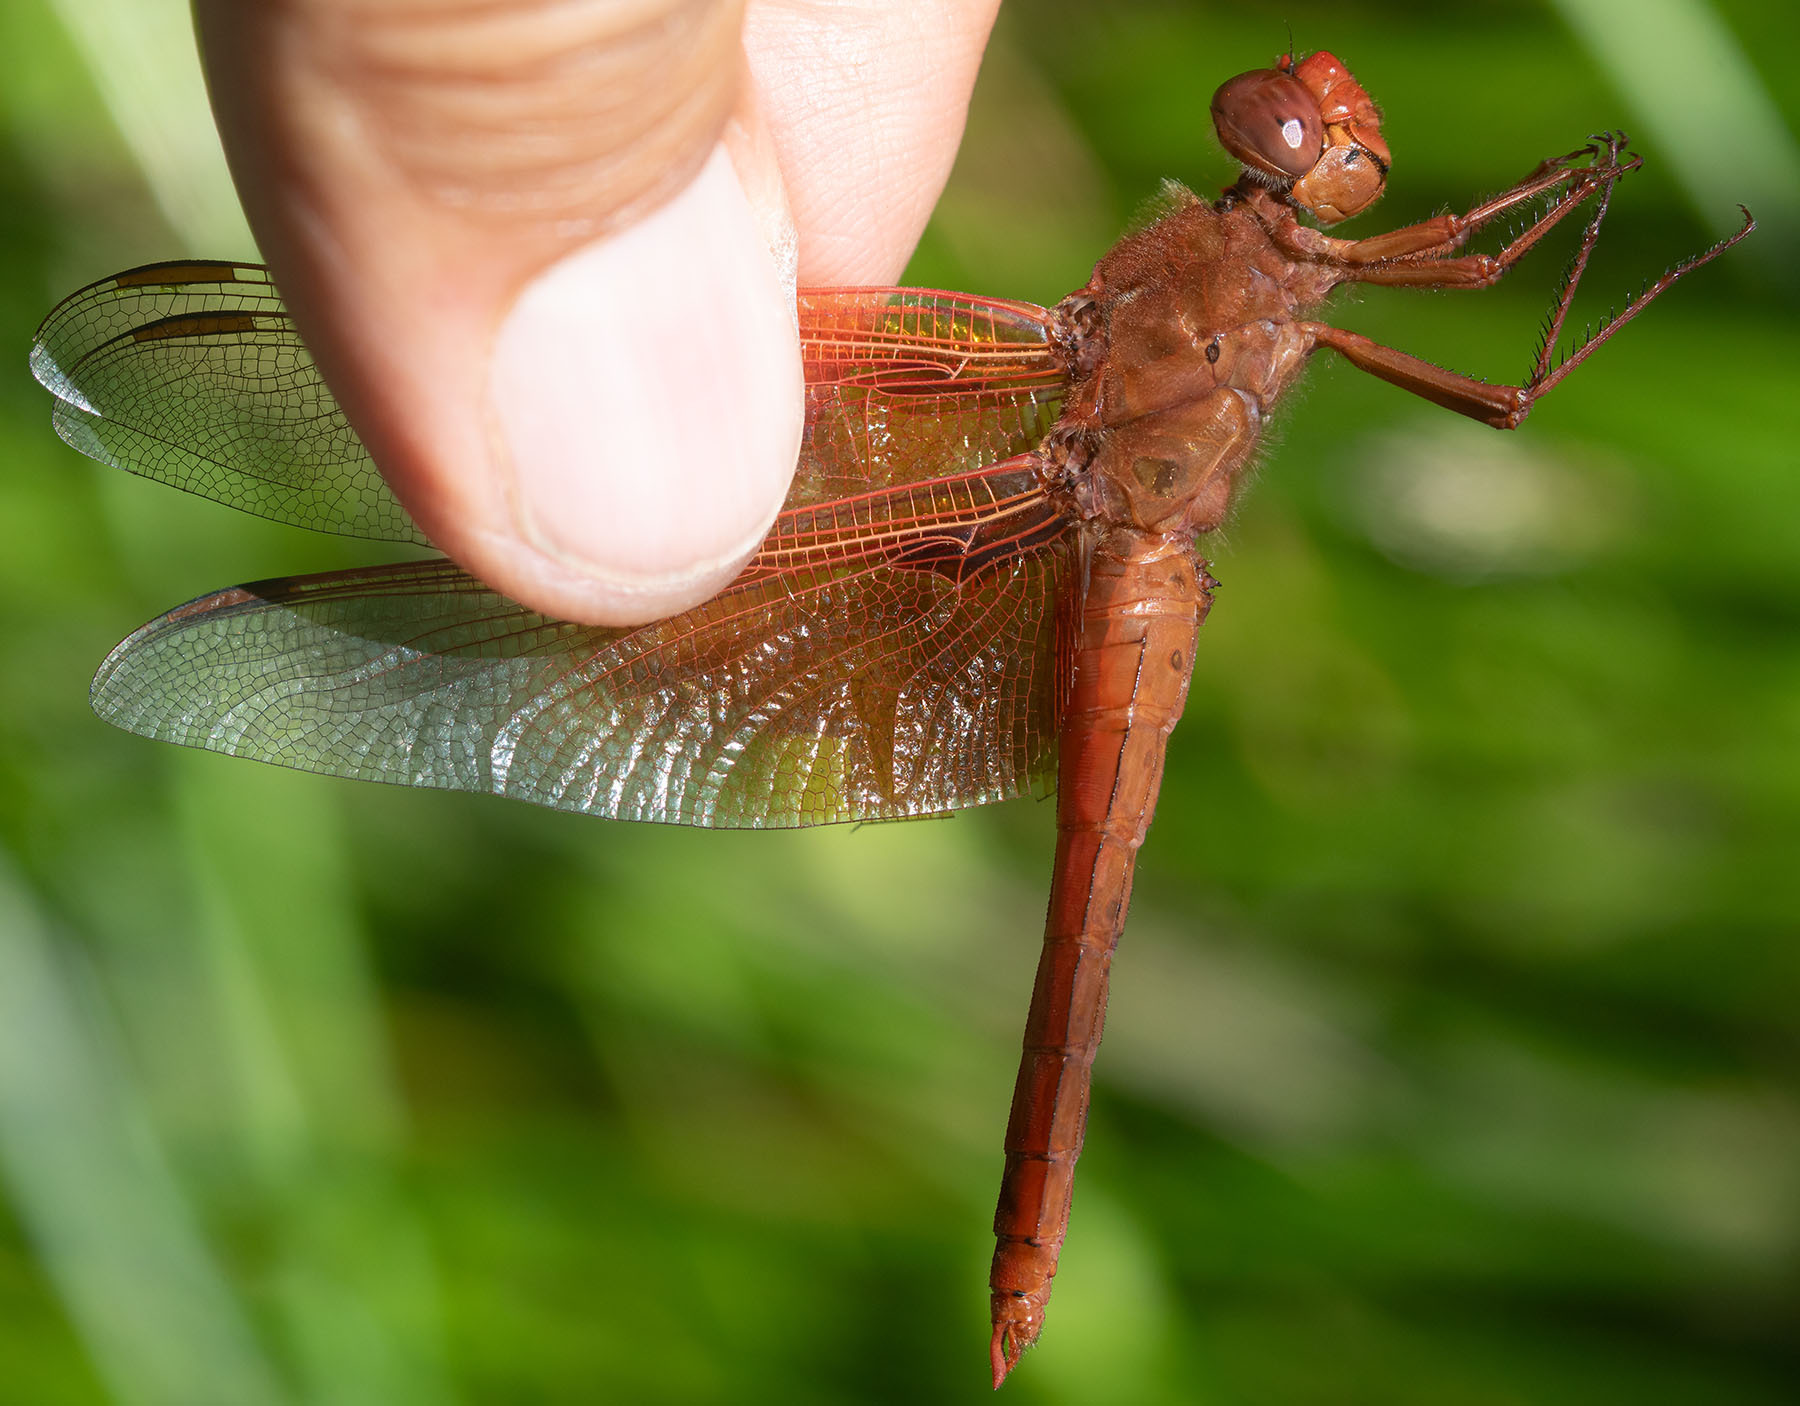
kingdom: Animalia
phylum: Arthropoda
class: Insecta
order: Odonata
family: Libellulidae
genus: Libellula
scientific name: Libellula saturata
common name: Flame skimmer
